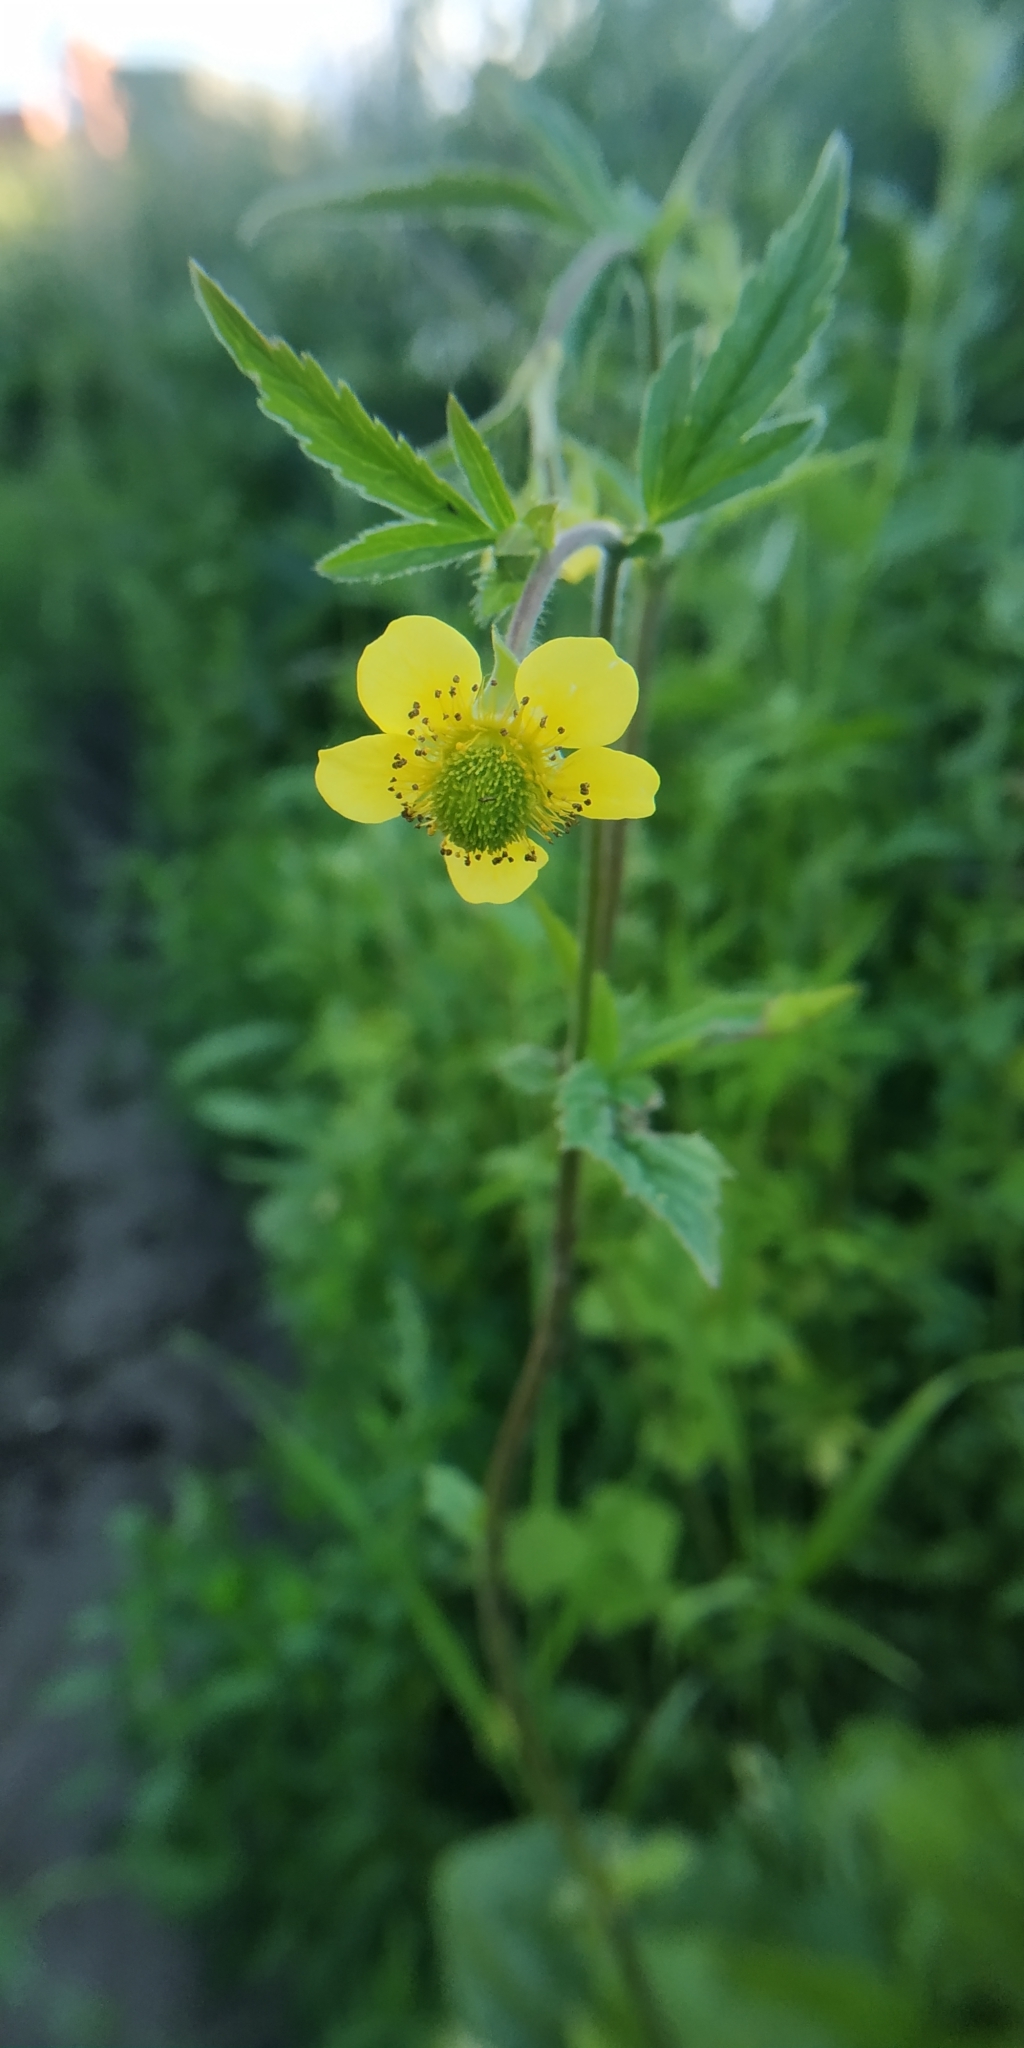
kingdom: Plantae
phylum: Tracheophyta
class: Magnoliopsida
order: Rosales
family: Rosaceae
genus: Geum
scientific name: Geum aleppicum
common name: Yellow avens
